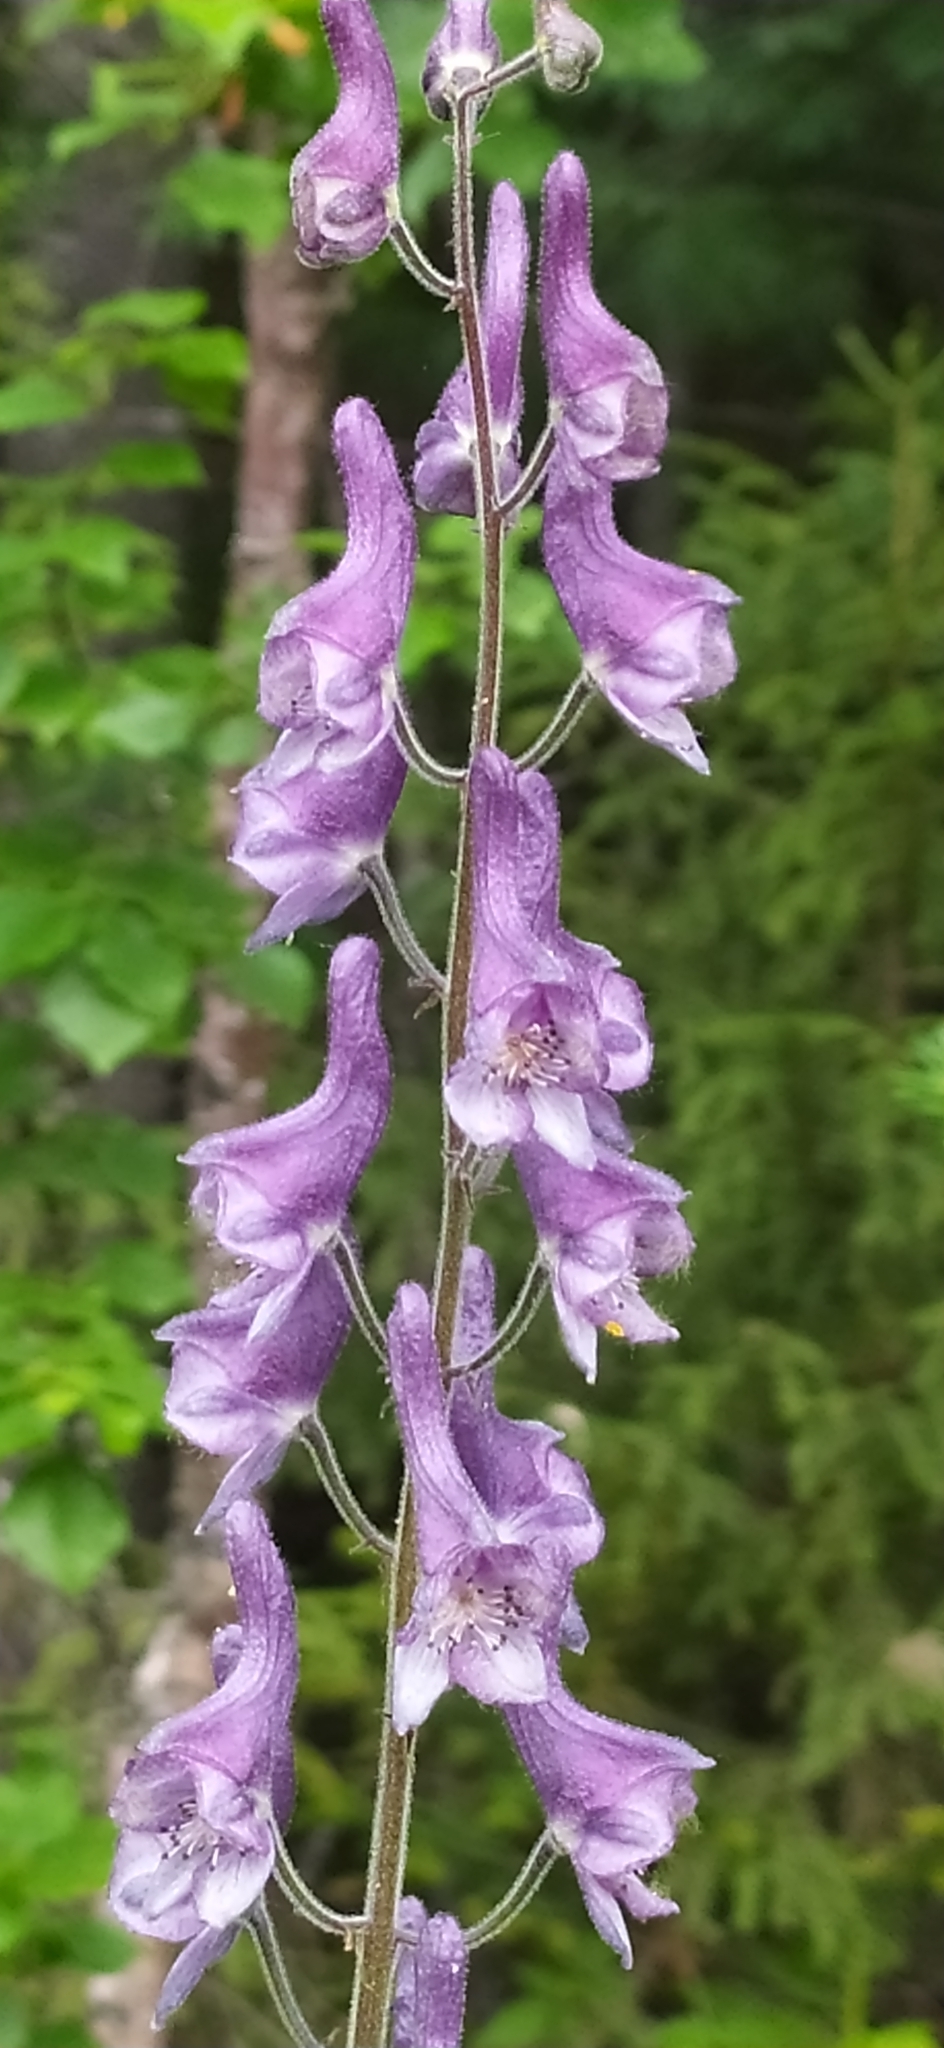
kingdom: Plantae
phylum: Tracheophyta
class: Magnoliopsida
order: Ranunculales
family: Ranunculaceae
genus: Aconitum
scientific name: Aconitum septentrionale
